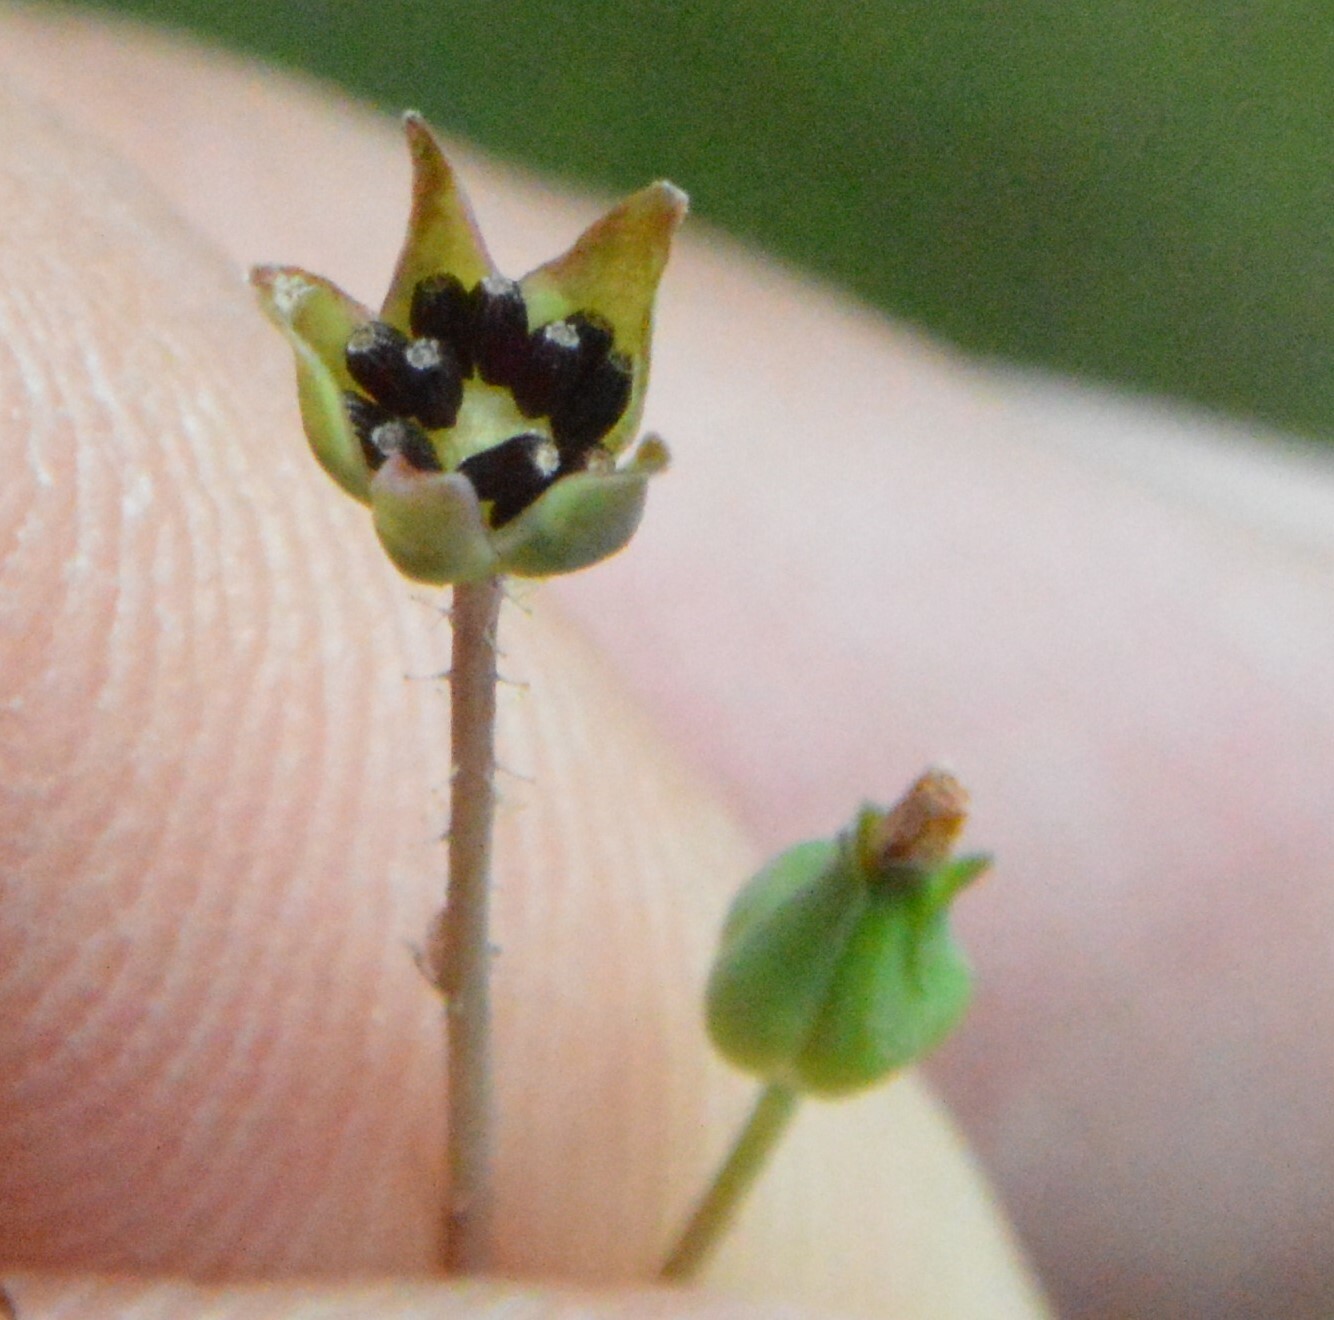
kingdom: Plantae
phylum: Tracheophyta
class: Magnoliopsida
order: Asterales
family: Asteraceae
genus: Krigia
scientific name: Krigia wrightii
